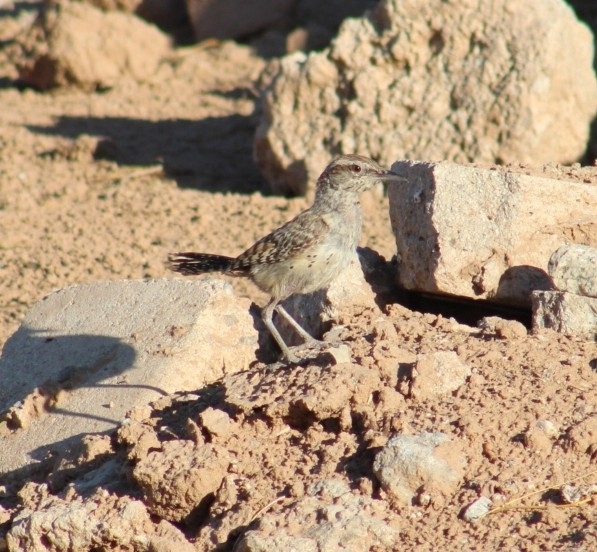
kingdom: Animalia
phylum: Chordata
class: Aves
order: Passeriformes
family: Troglodytidae
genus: Campylorhynchus
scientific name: Campylorhynchus brunneicapillus
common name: Cactus wren
